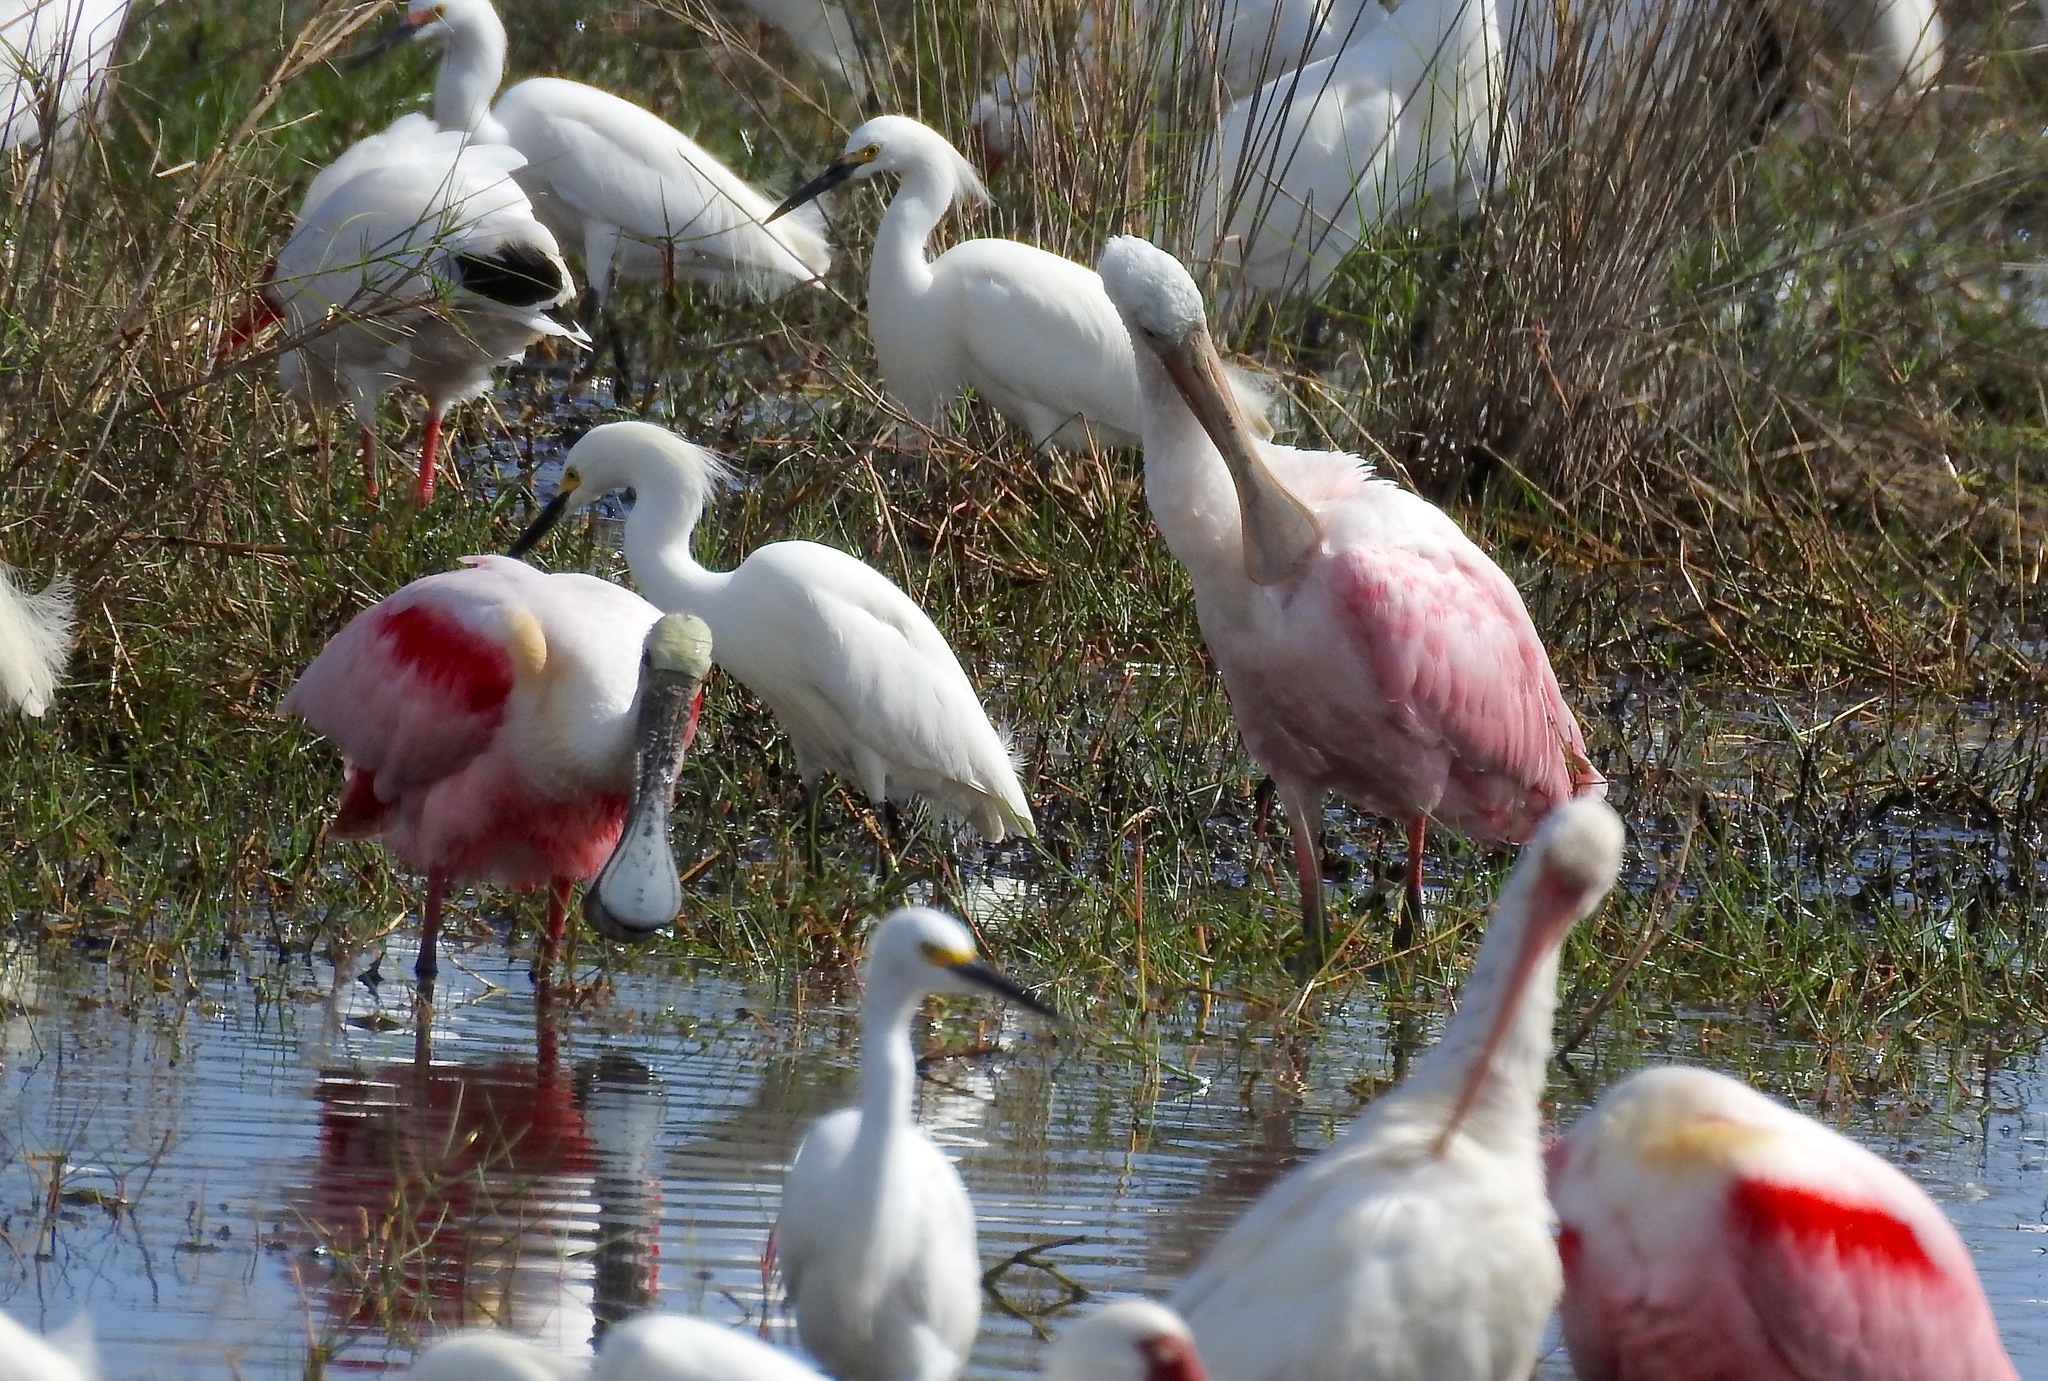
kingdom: Animalia
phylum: Chordata
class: Aves
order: Pelecaniformes
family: Threskiornithidae
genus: Platalea
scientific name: Platalea ajaja
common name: Roseate spoonbill
